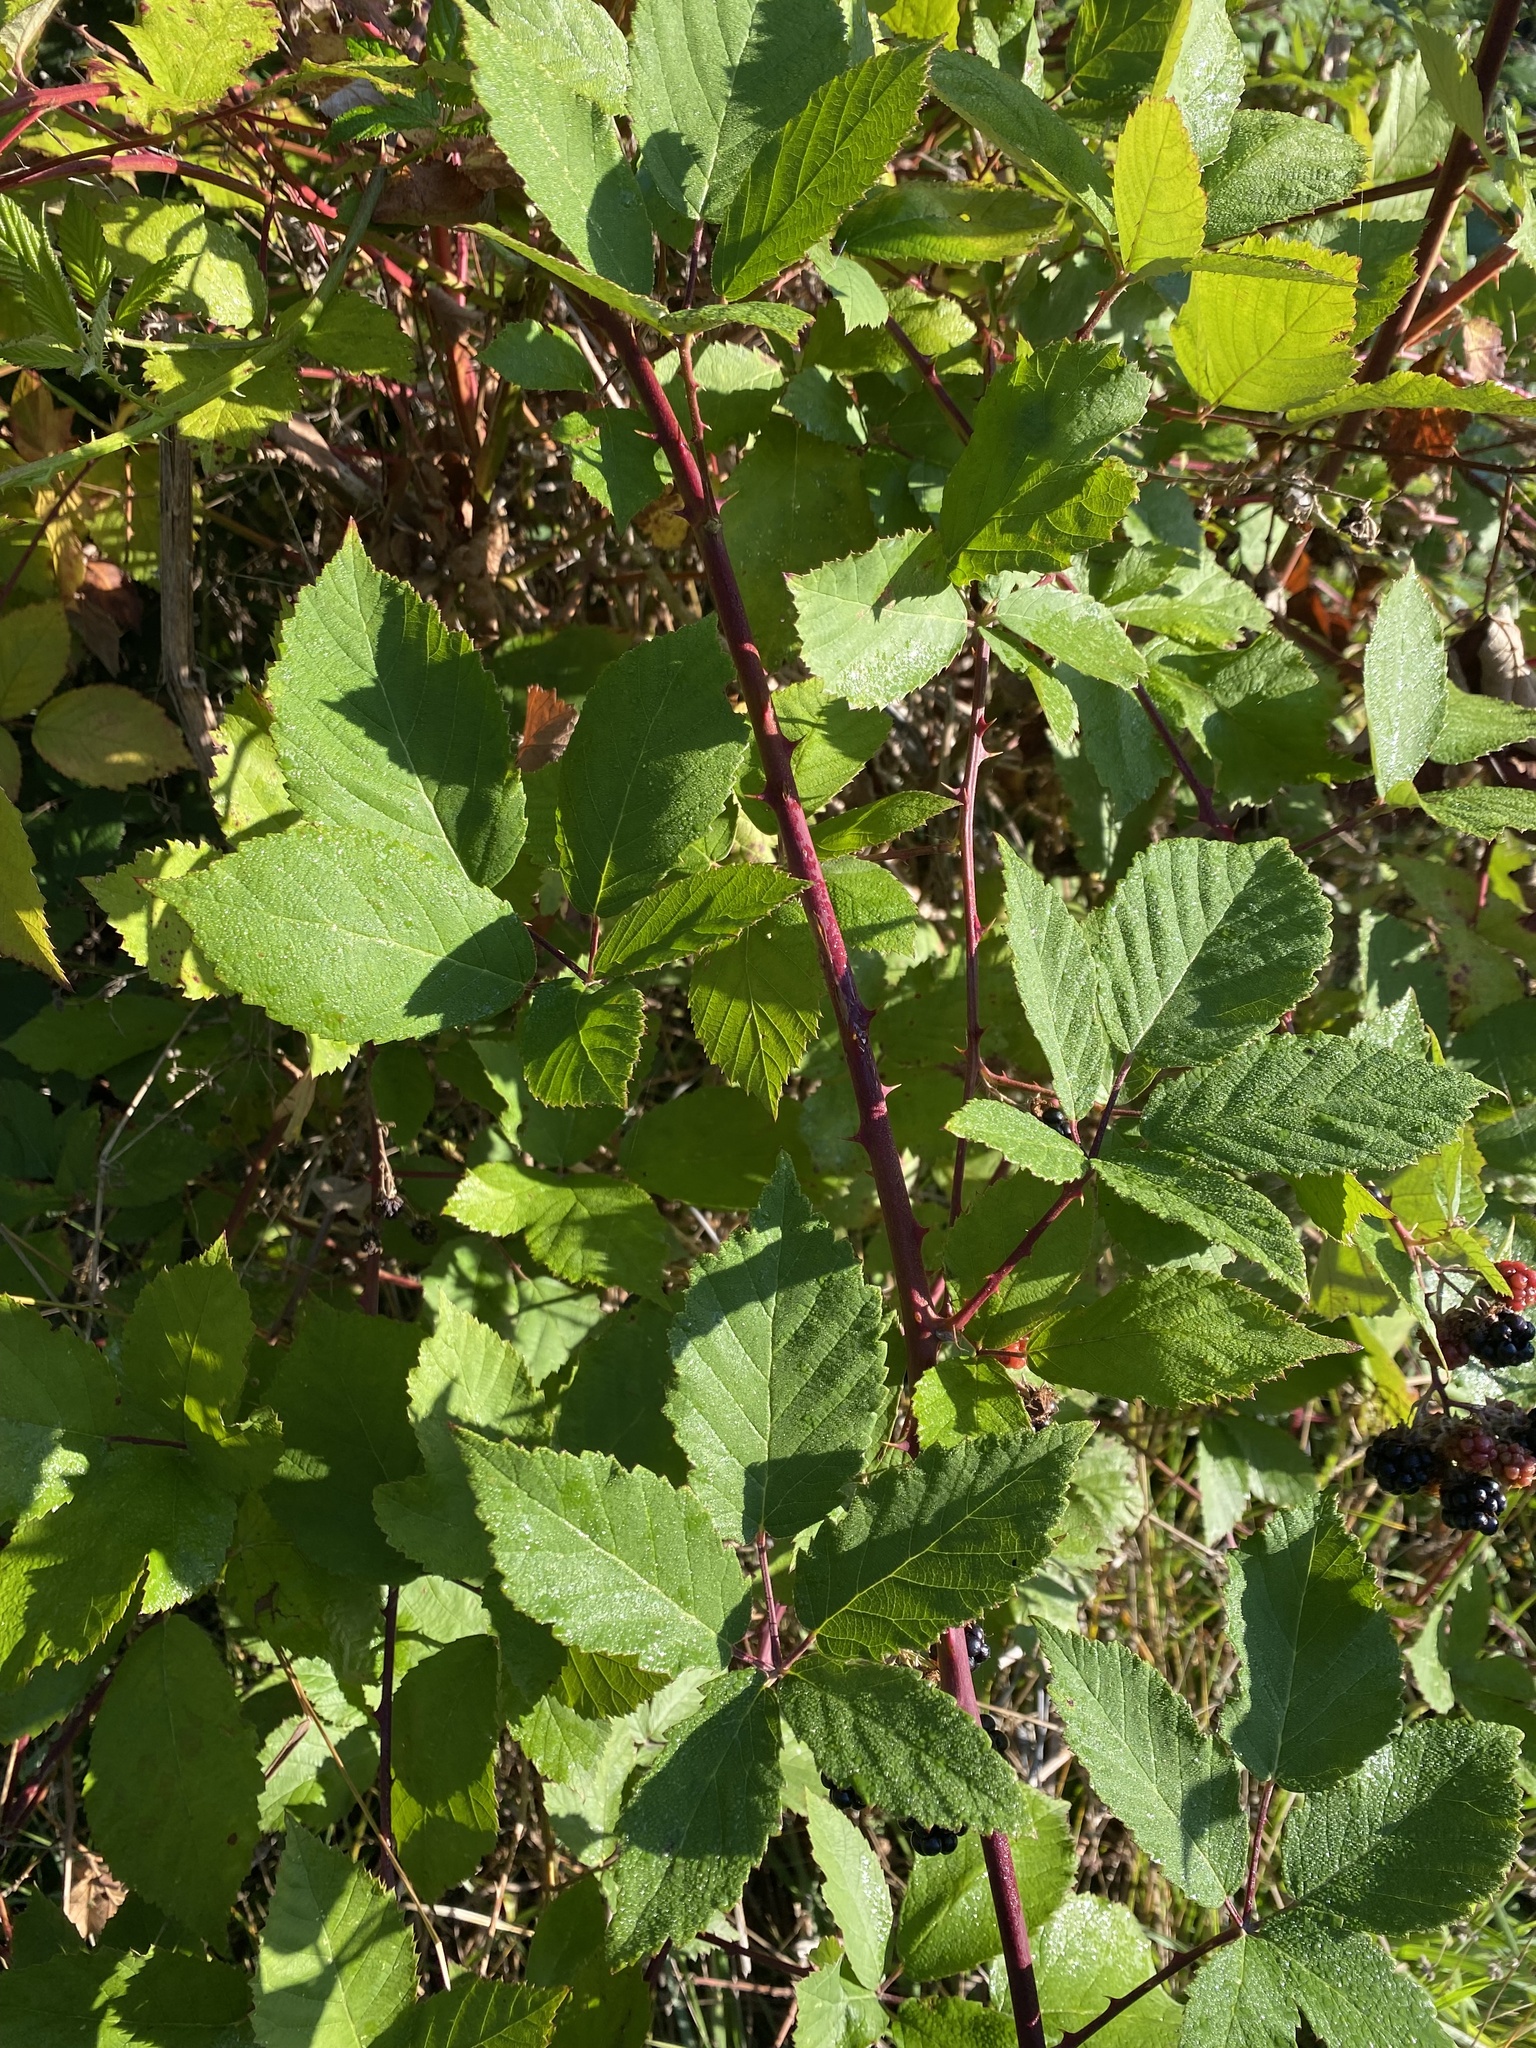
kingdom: Plantae
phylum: Tracheophyta
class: Magnoliopsida
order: Rosales
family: Rosaceae
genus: Rubus
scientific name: Rubus bifrons
